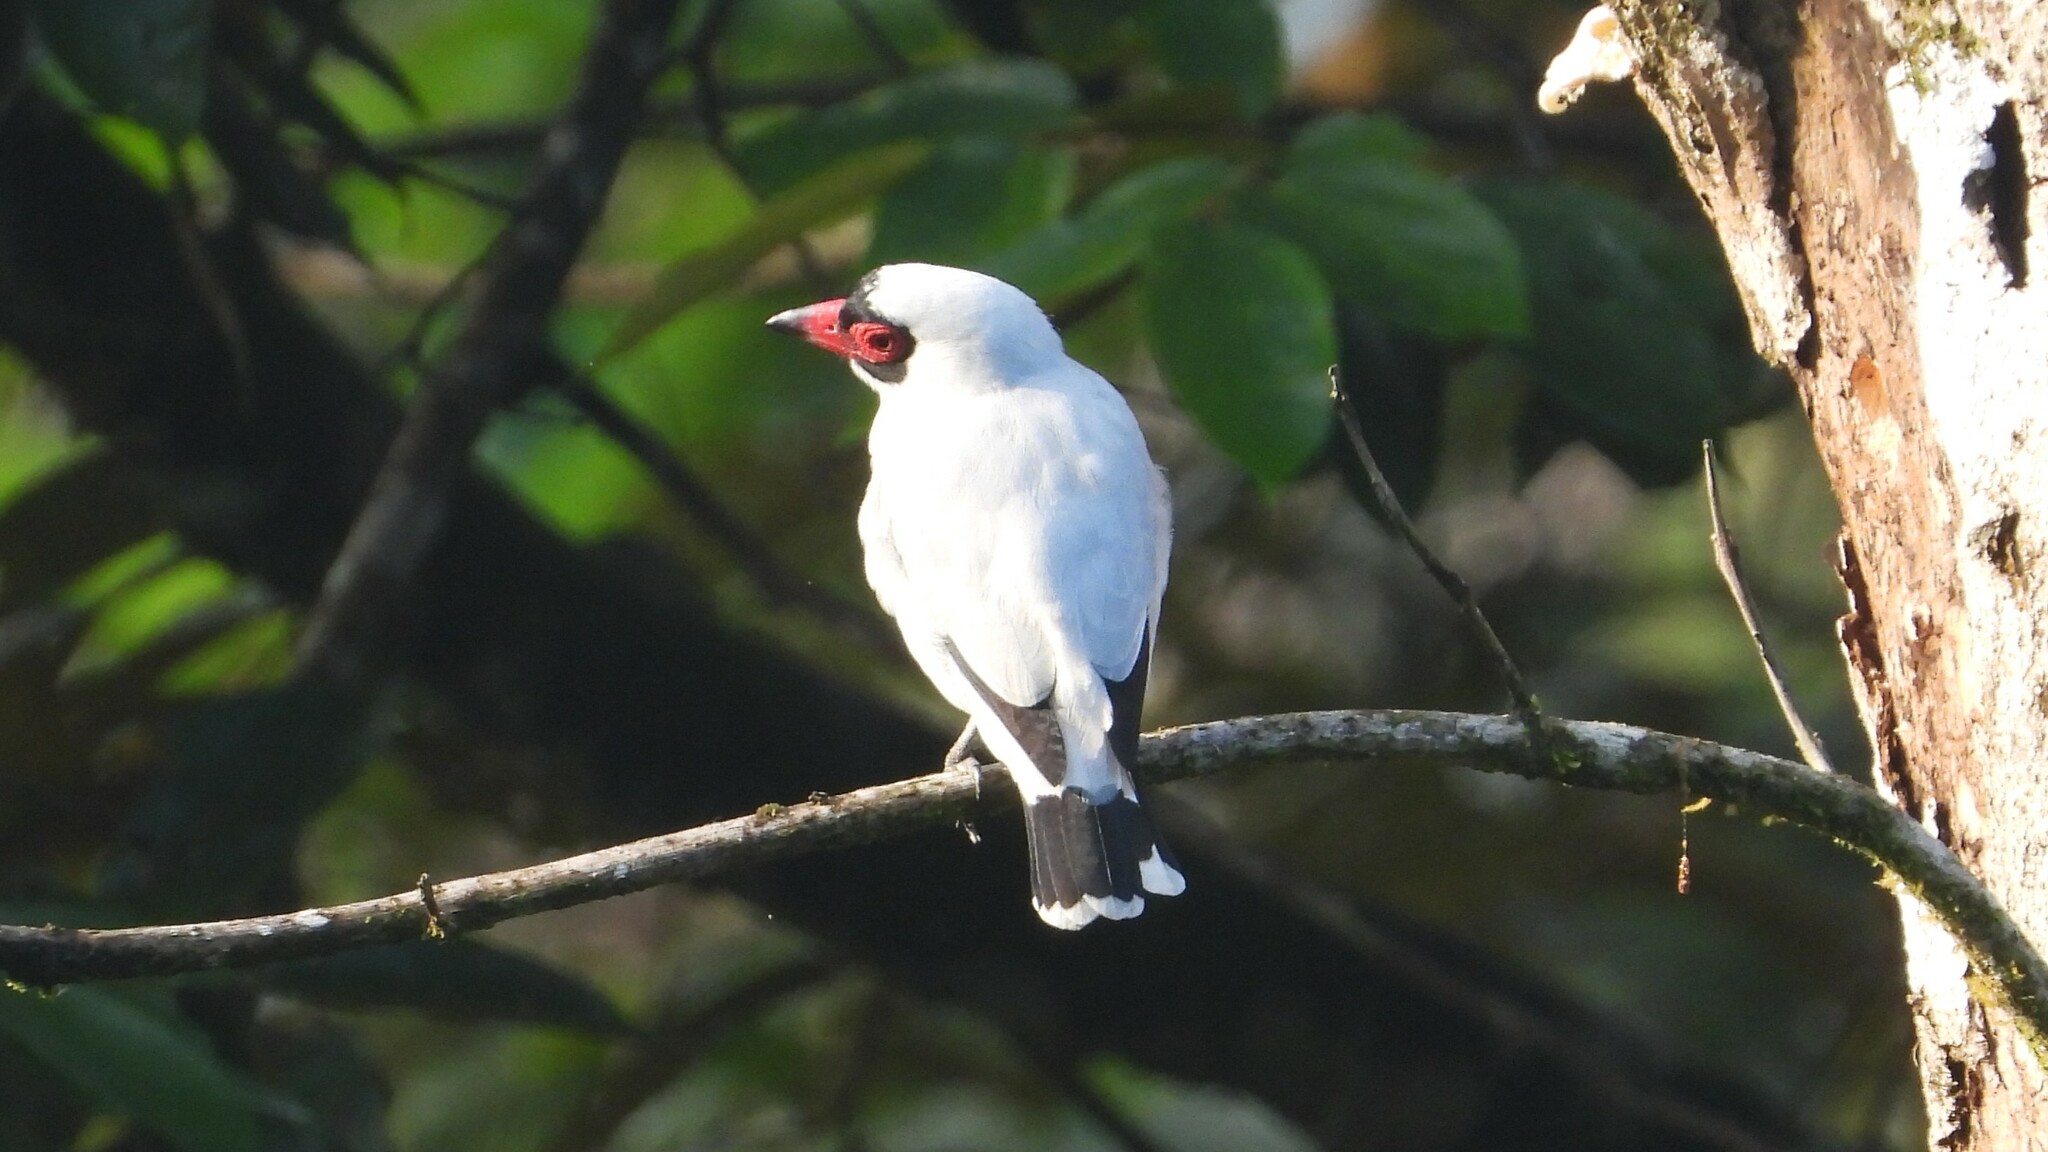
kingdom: Animalia
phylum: Chordata
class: Aves
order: Passeriformes
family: Cotingidae
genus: Tityra
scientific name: Tityra semifasciata
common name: Masked tityra
